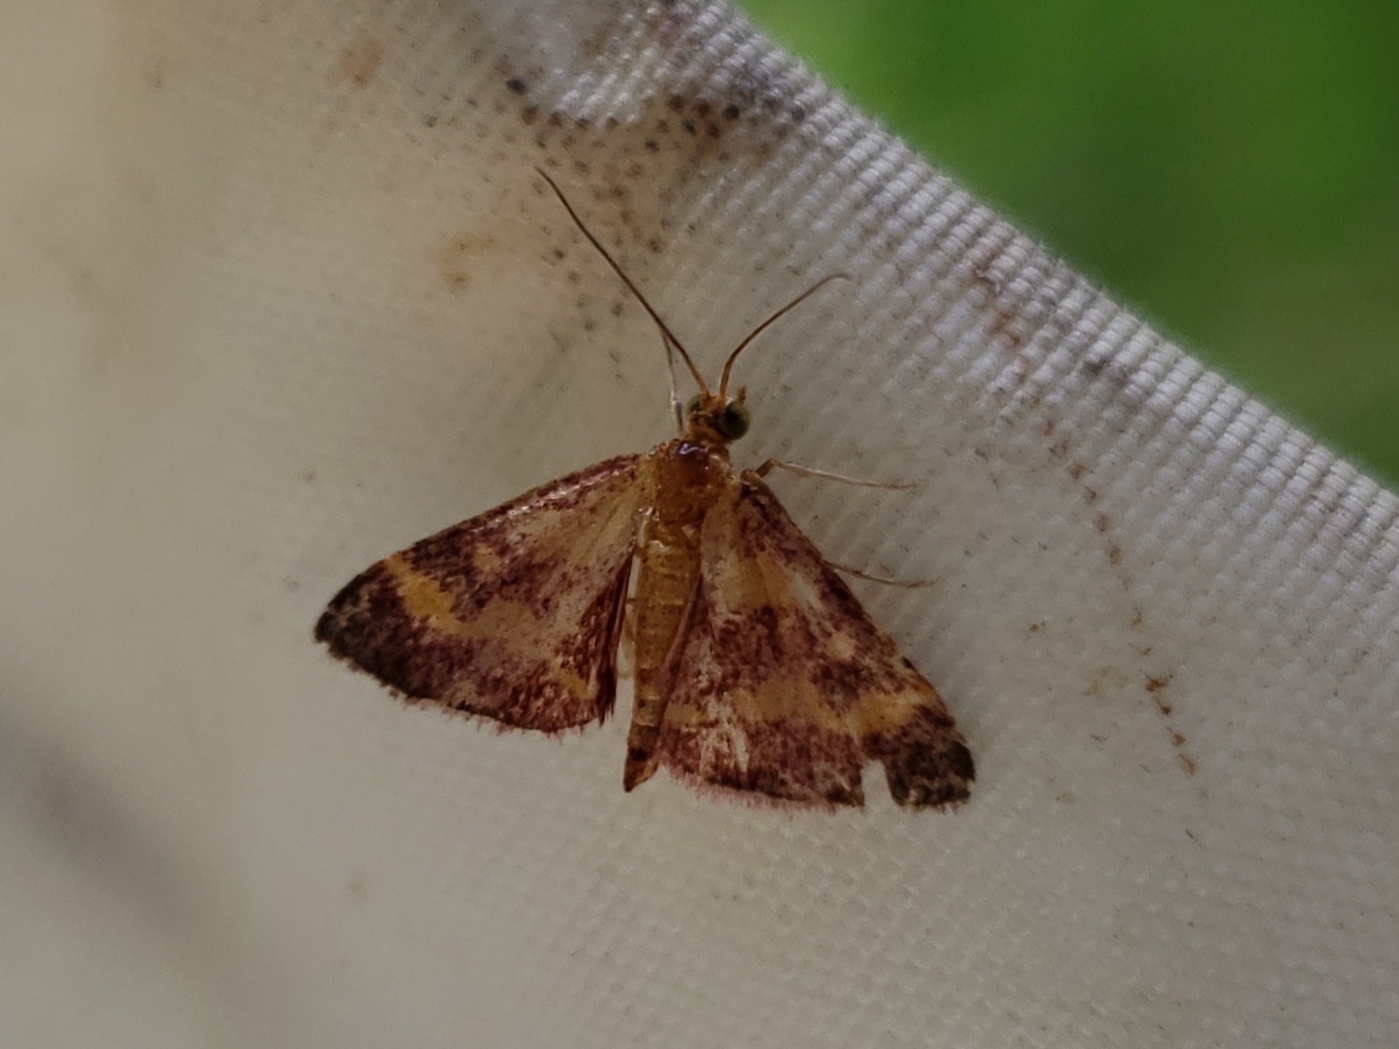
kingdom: Animalia
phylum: Arthropoda
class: Insecta
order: Lepidoptera
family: Crambidae
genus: Pyrausta
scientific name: Pyrausta tyralis
